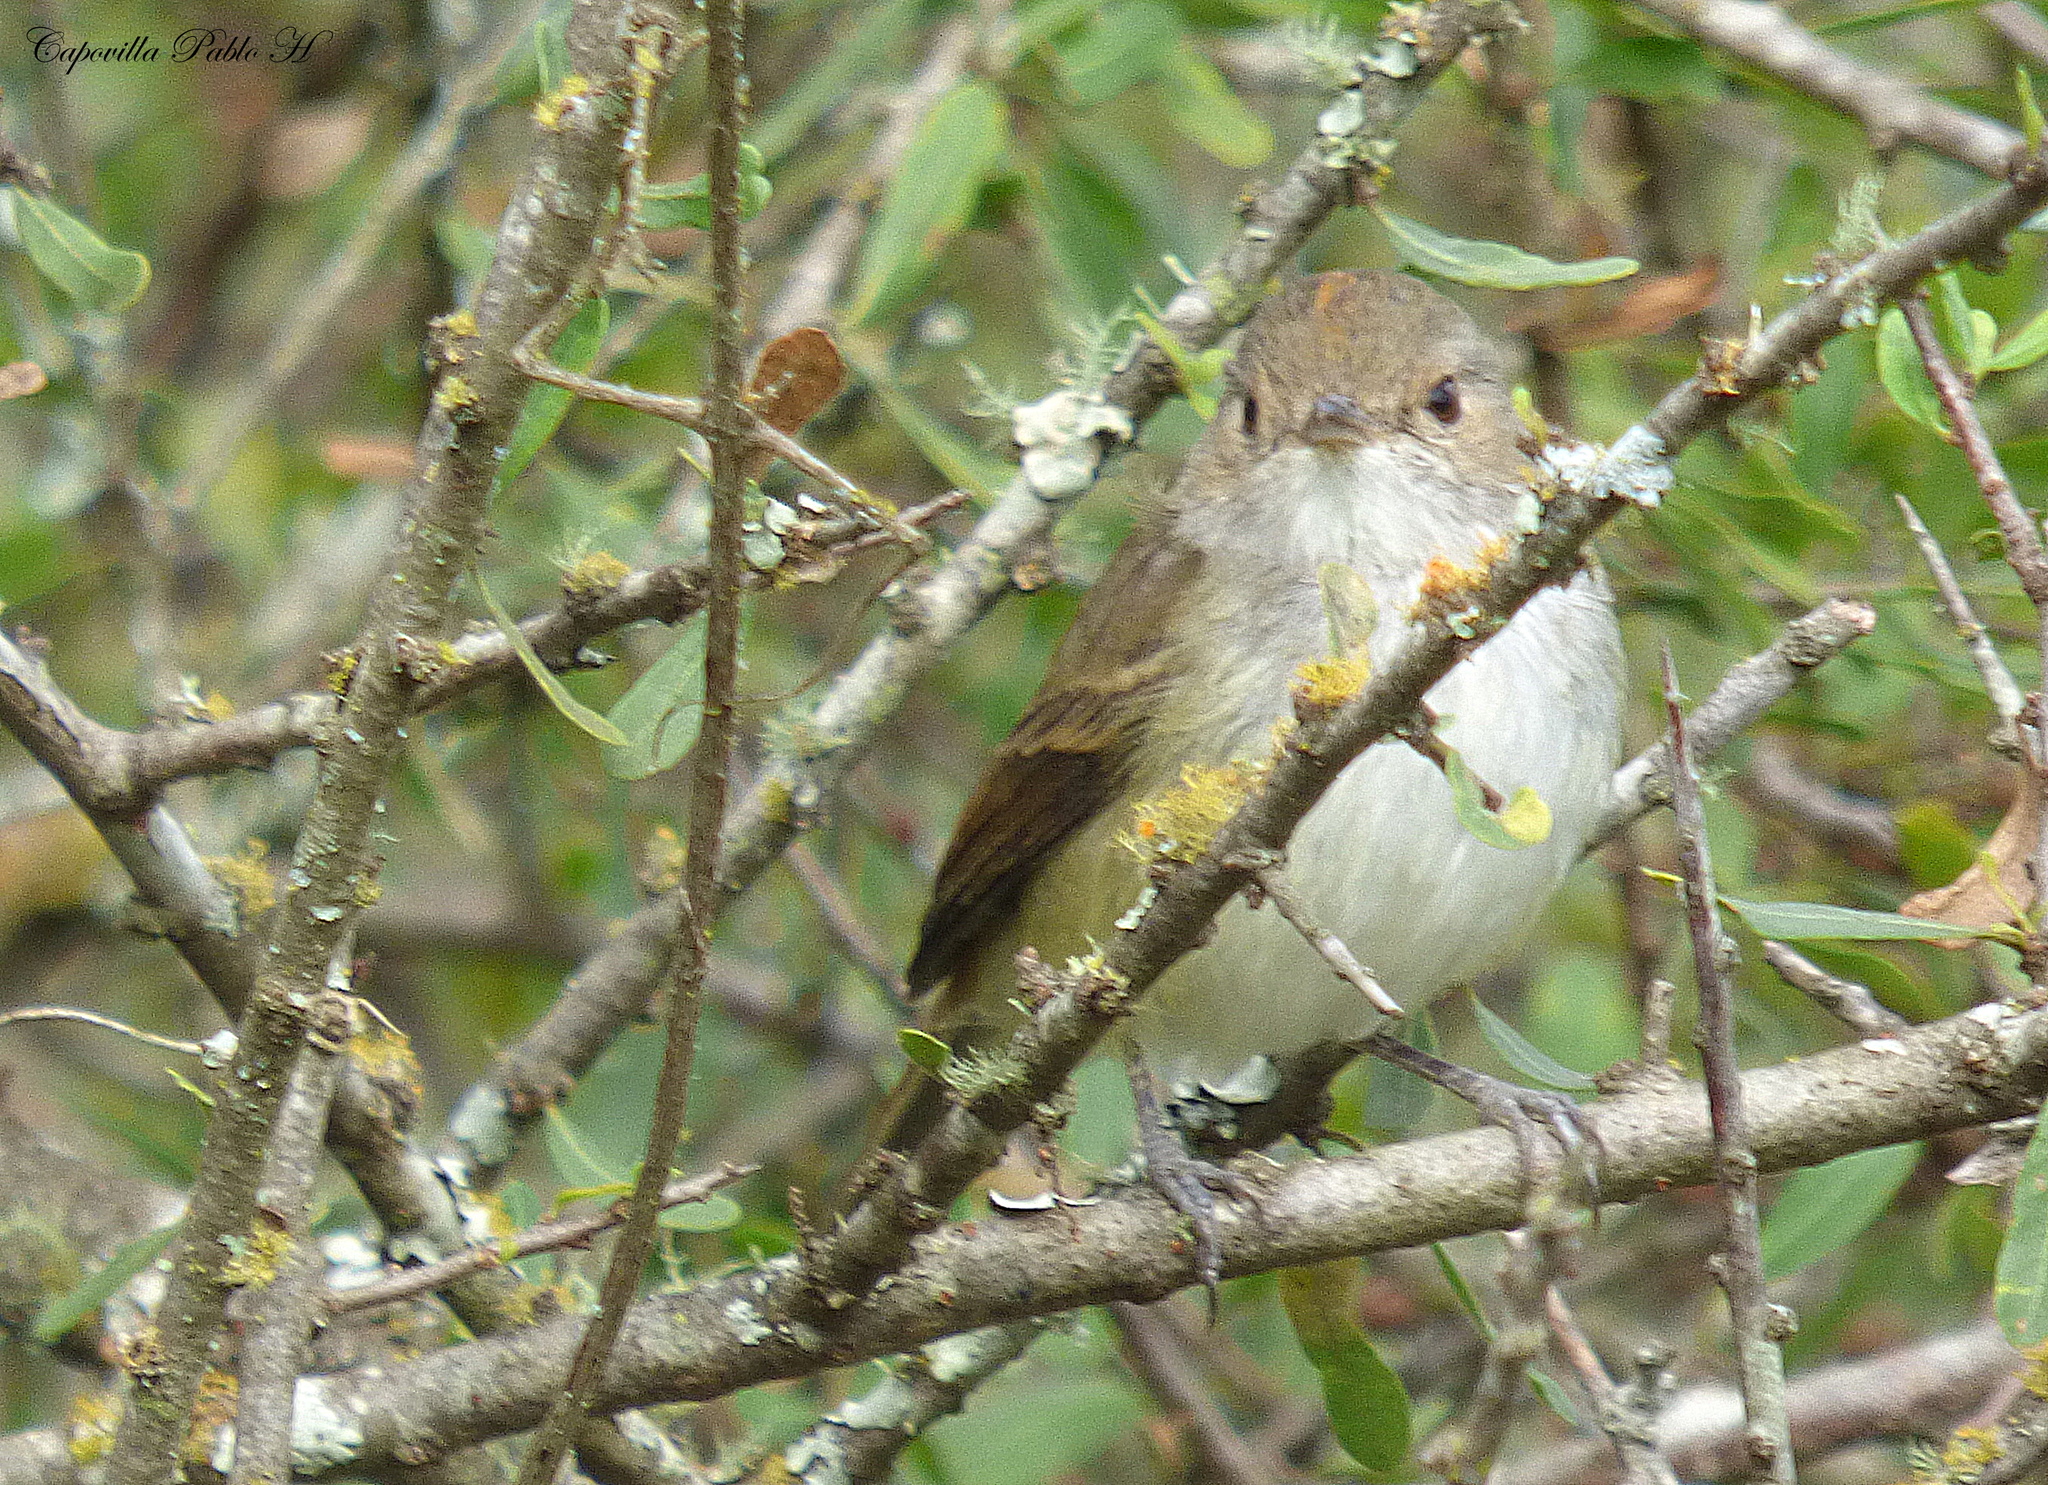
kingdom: Animalia
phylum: Chordata
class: Aves
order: Passeriformes
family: Tyrannidae
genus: Euscarthmus
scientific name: Euscarthmus meloryphus
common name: Tawny-crowned pygmy tyrant
